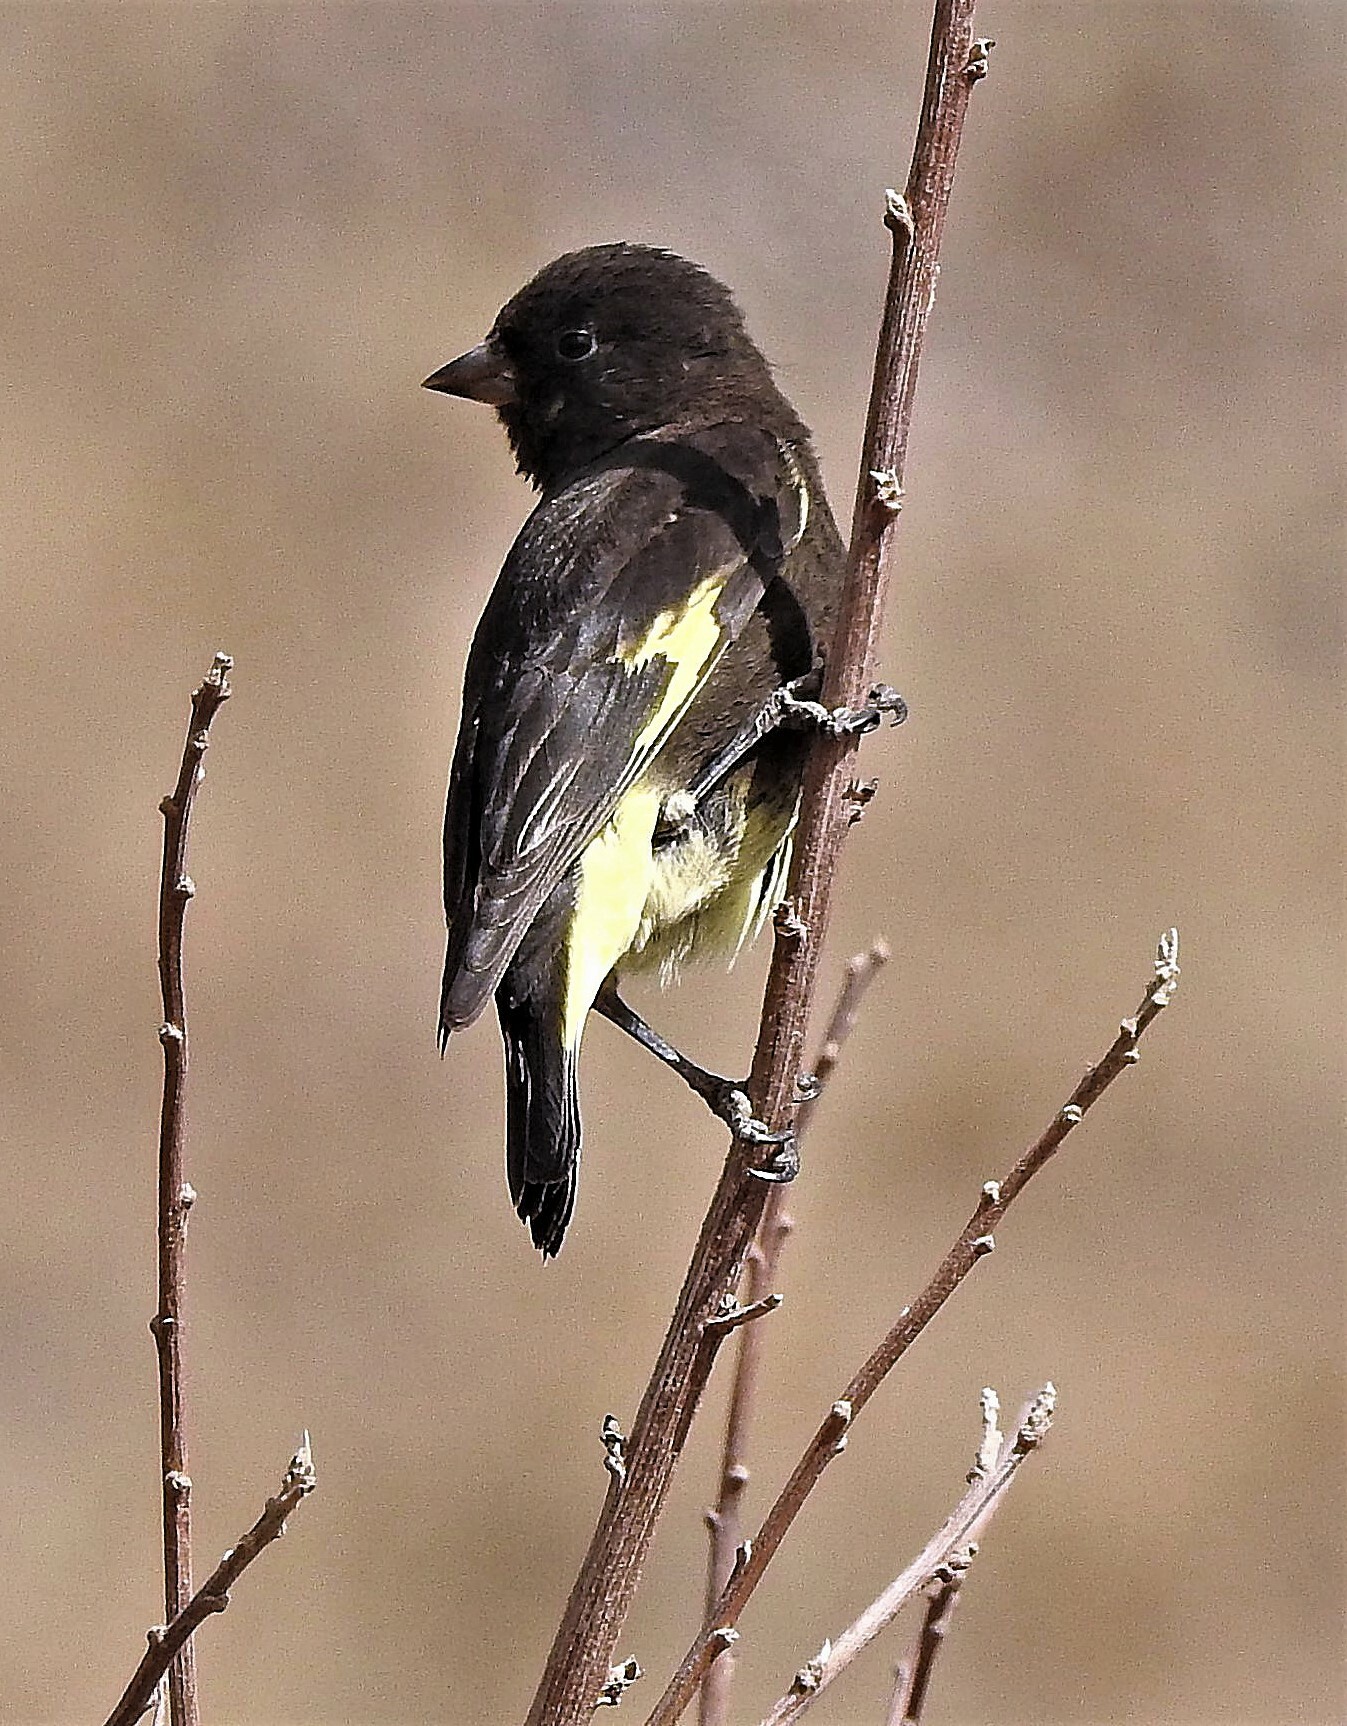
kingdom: Animalia
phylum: Chordata
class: Aves
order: Passeriformes
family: Fringillidae
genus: Spinus
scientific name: Spinus atratus
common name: Black siskin
